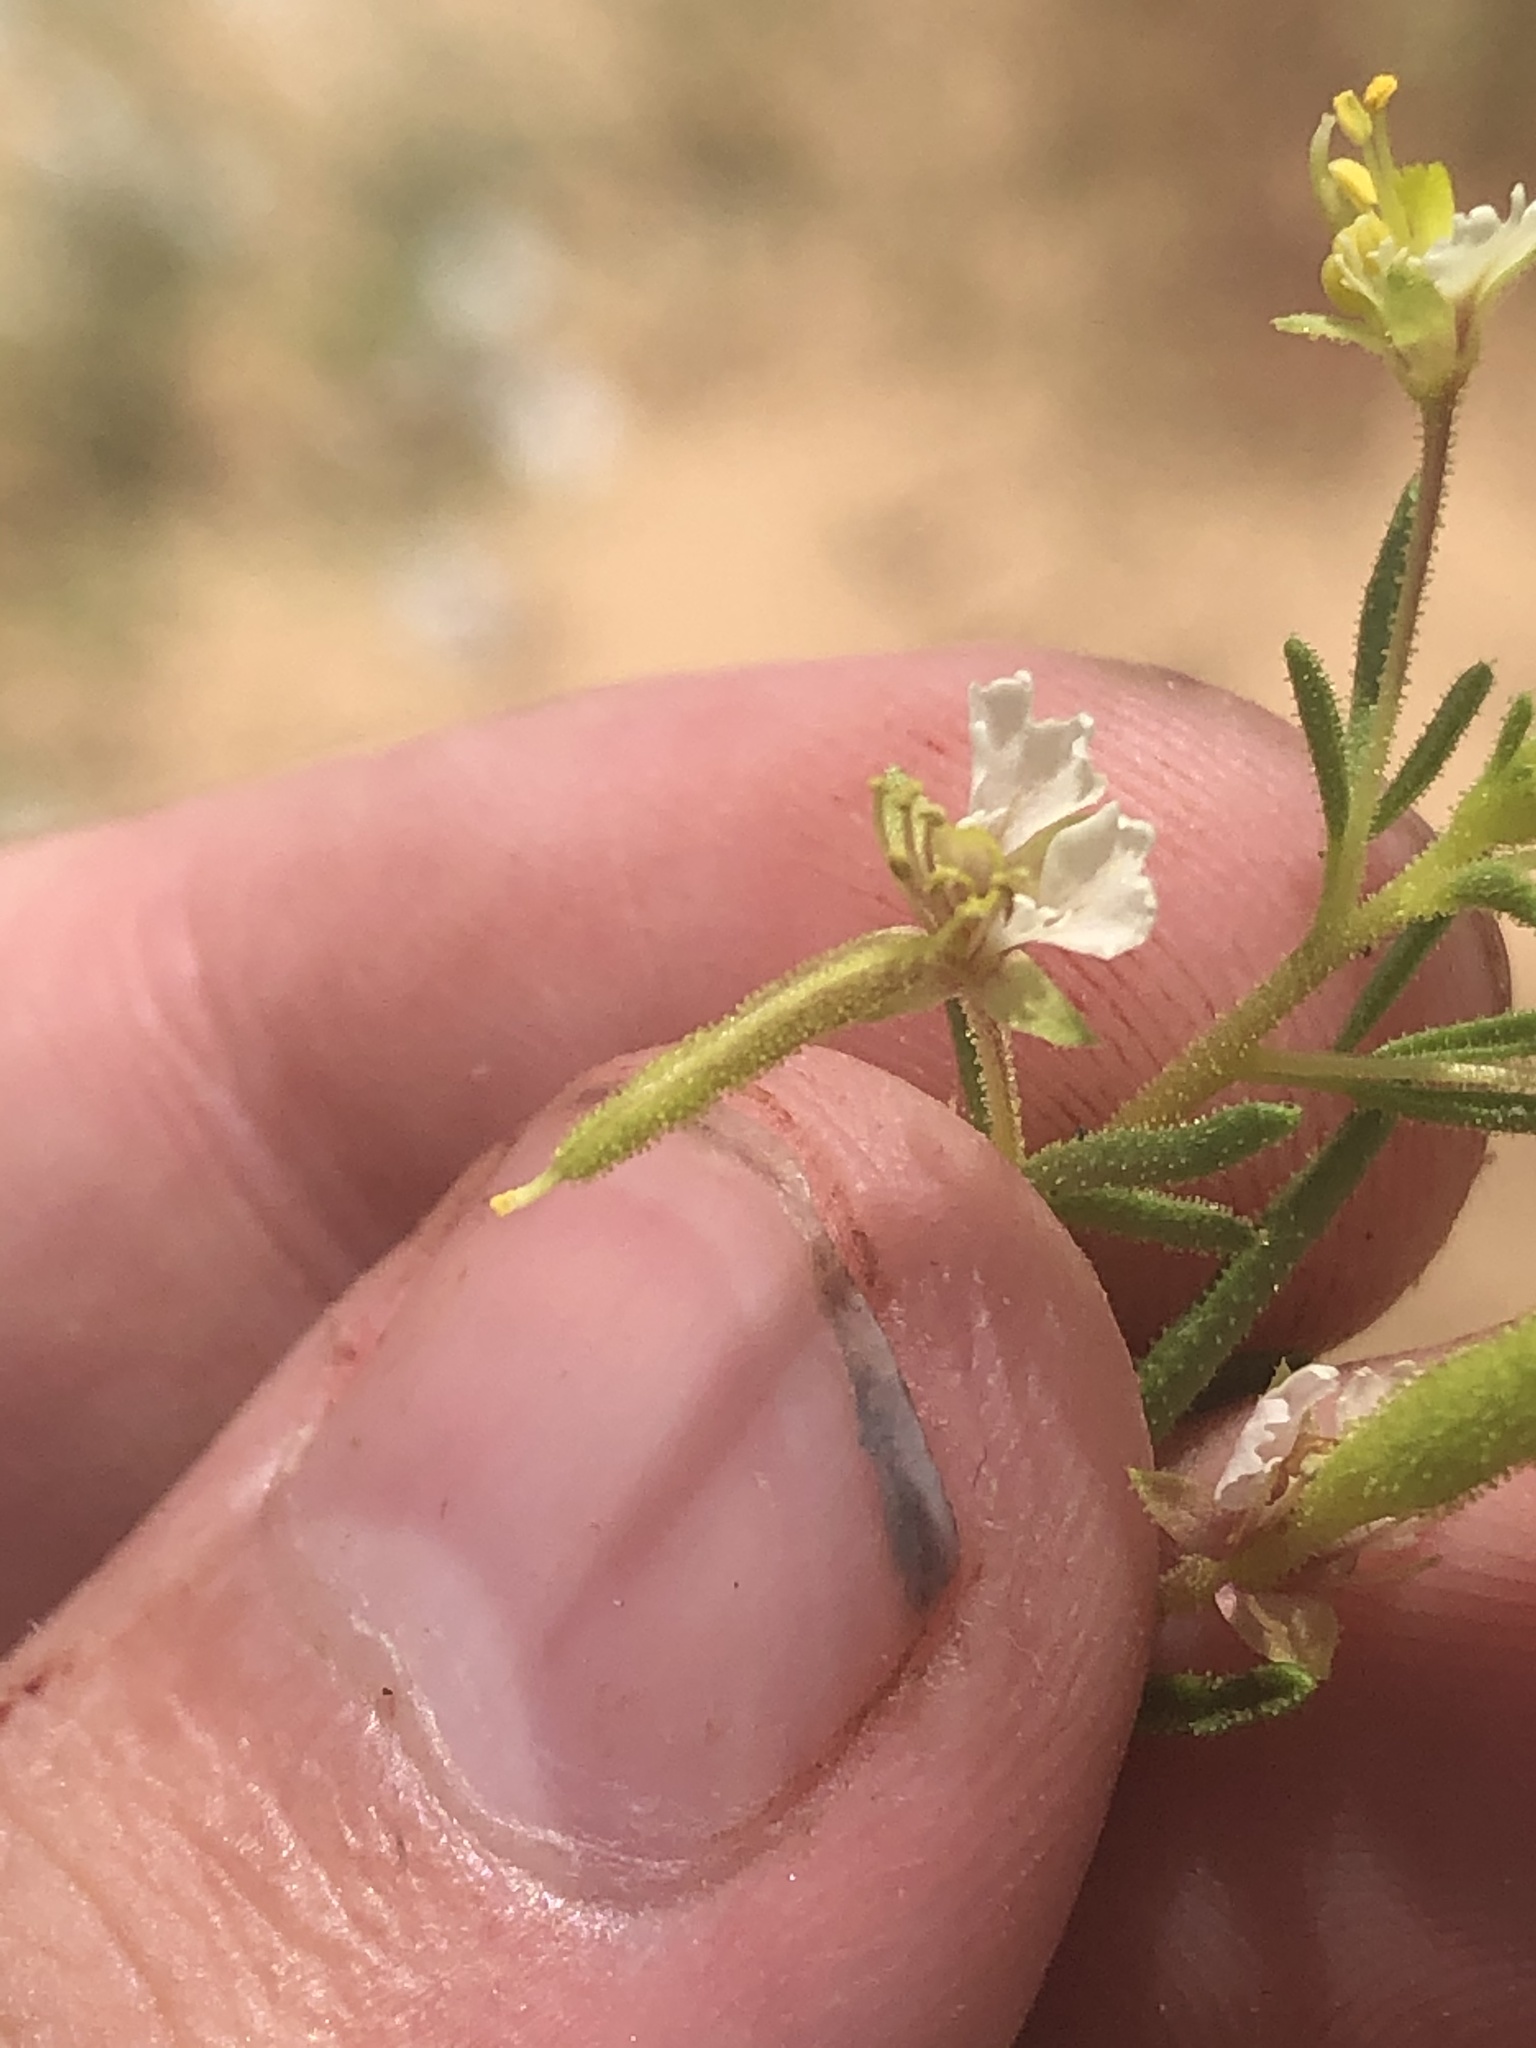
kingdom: Plantae
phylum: Tracheophyta
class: Magnoliopsida
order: Brassicales
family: Cleomaceae
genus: Polanisia
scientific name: Polanisia jamesii
